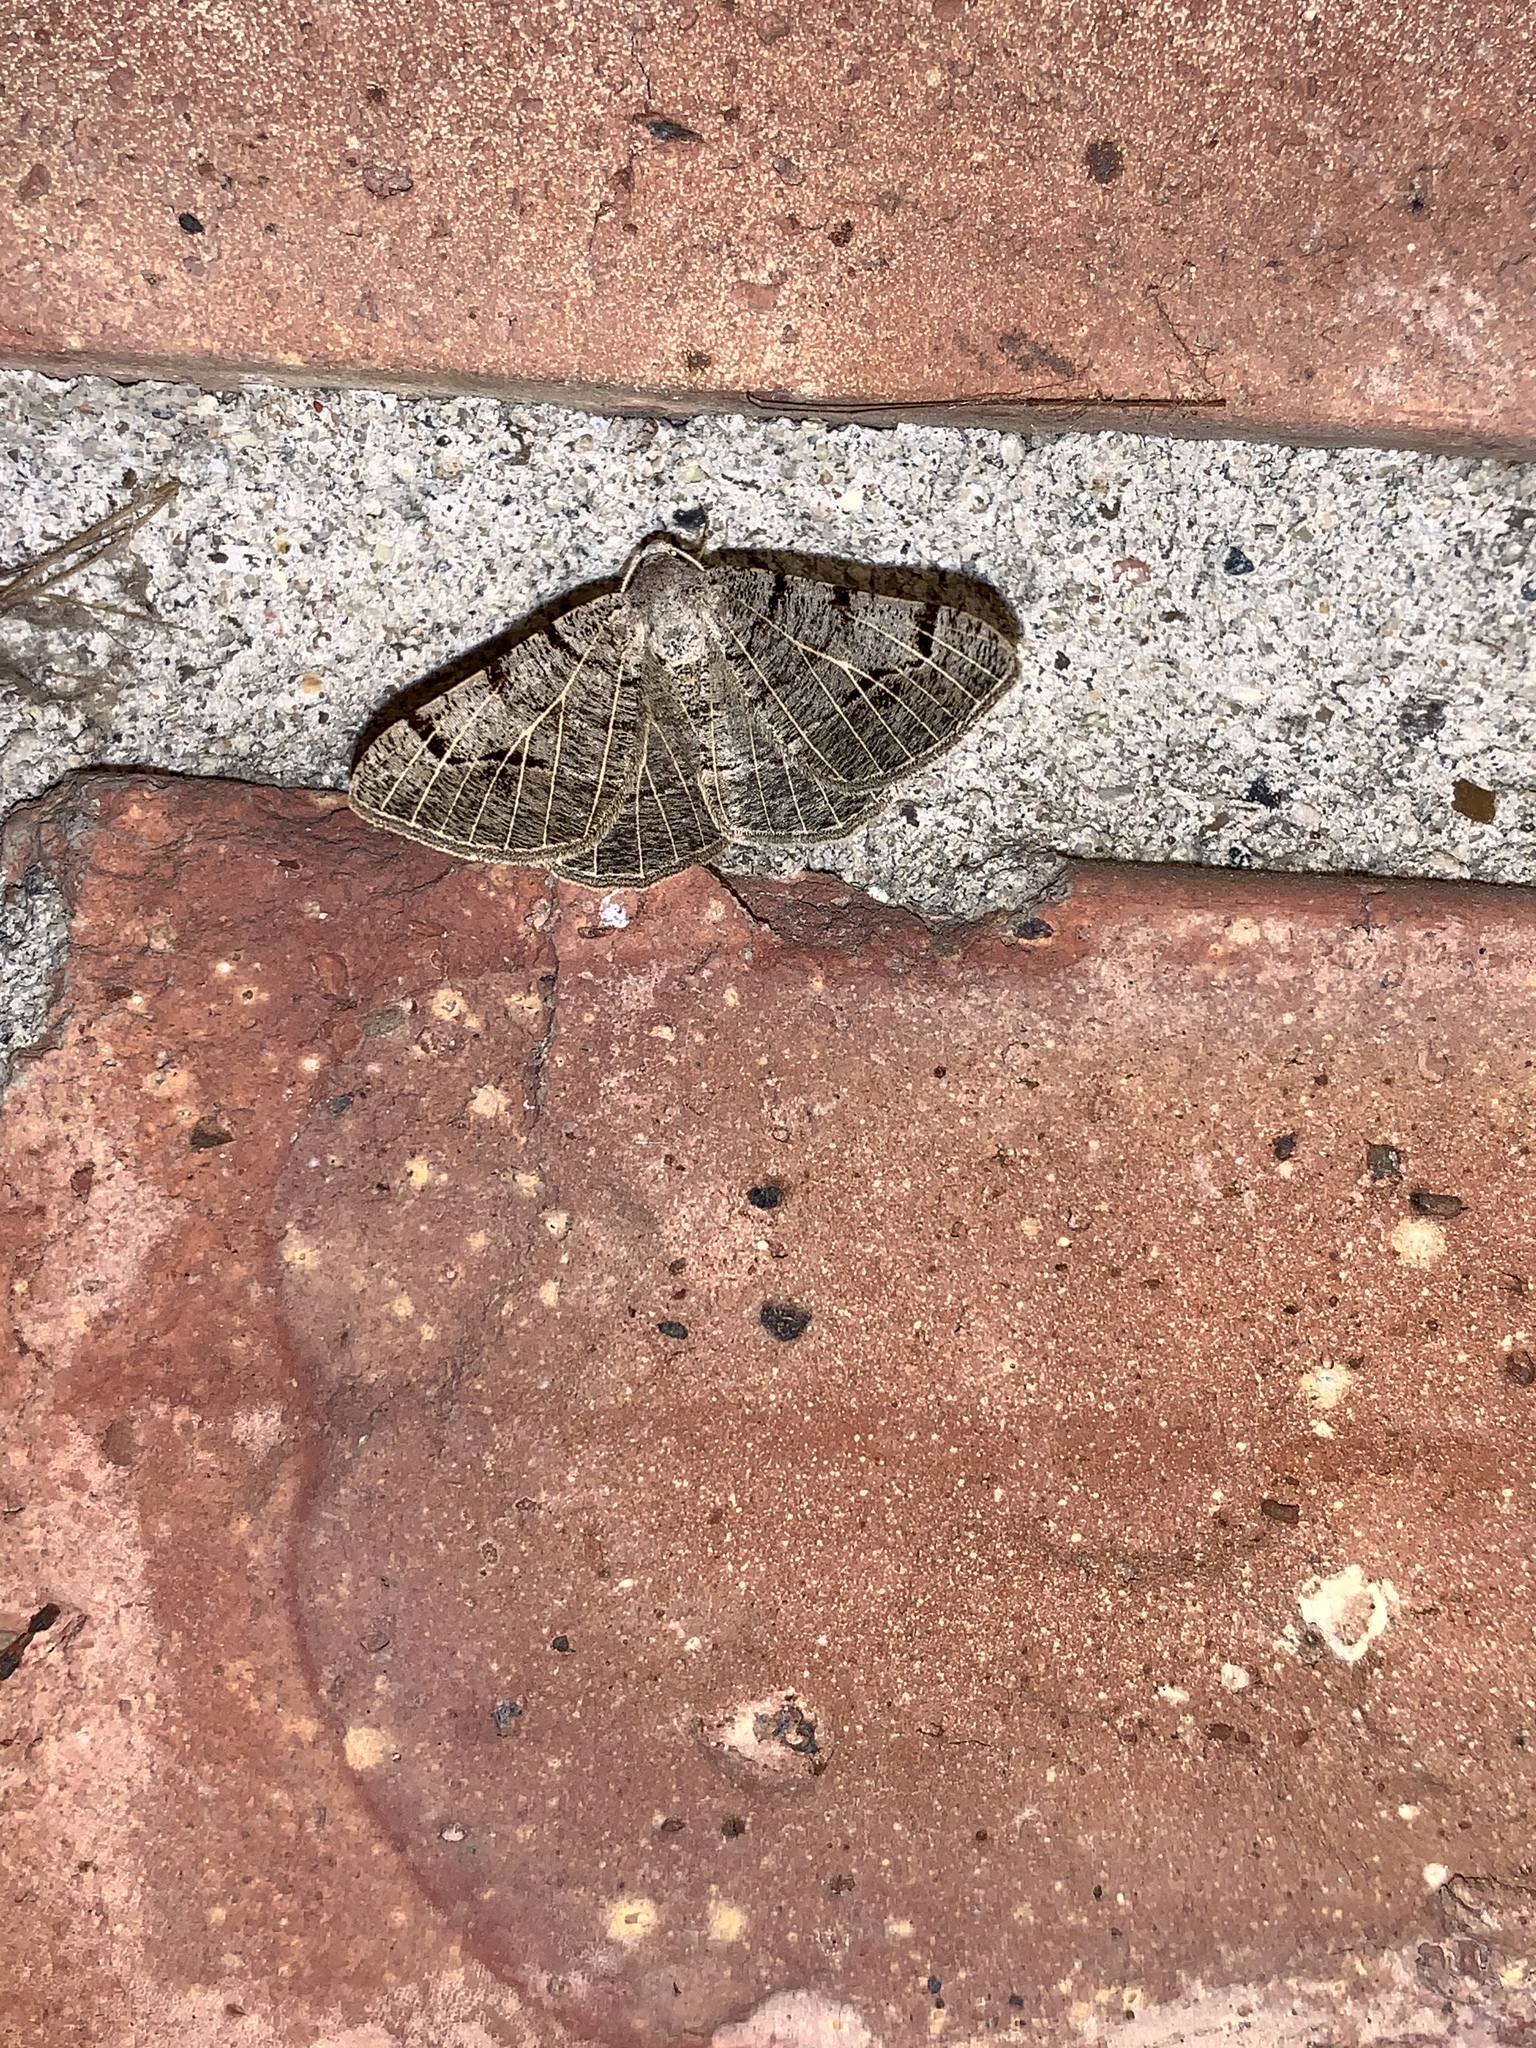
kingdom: Animalia
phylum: Arthropoda
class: Insecta
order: Lepidoptera
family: Geometridae
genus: Isturgia
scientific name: Isturgia dislocaria
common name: Pale-viened enconista
